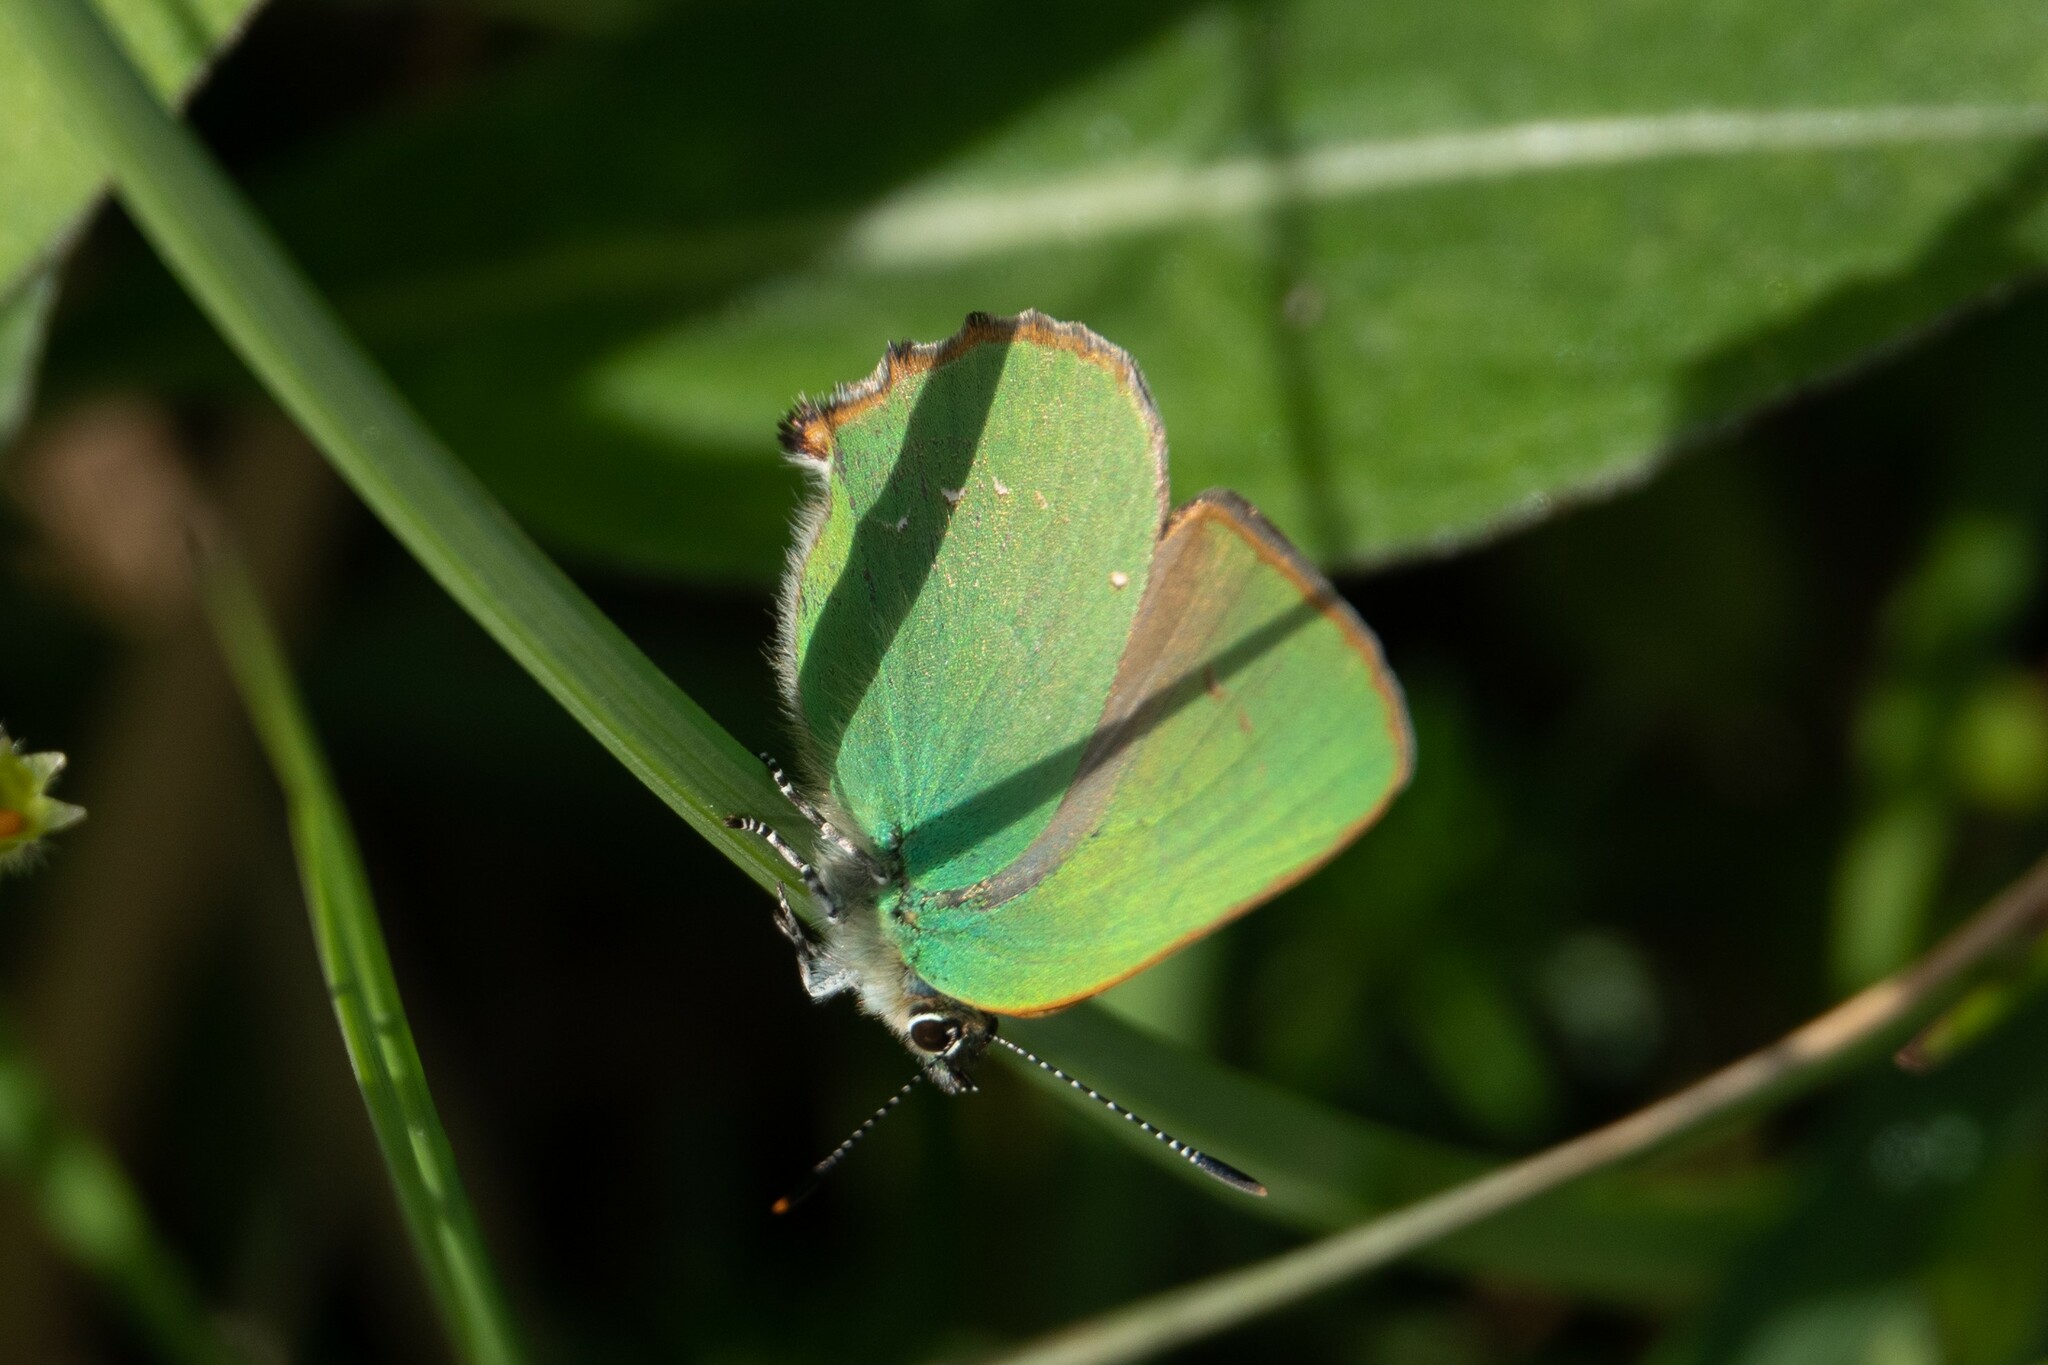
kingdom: Animalia
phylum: Arthropoda
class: Insecta
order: Lepidoptera
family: Lycaenidae
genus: Callophrys
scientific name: Callophrys rubi
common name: Green hairstreak
